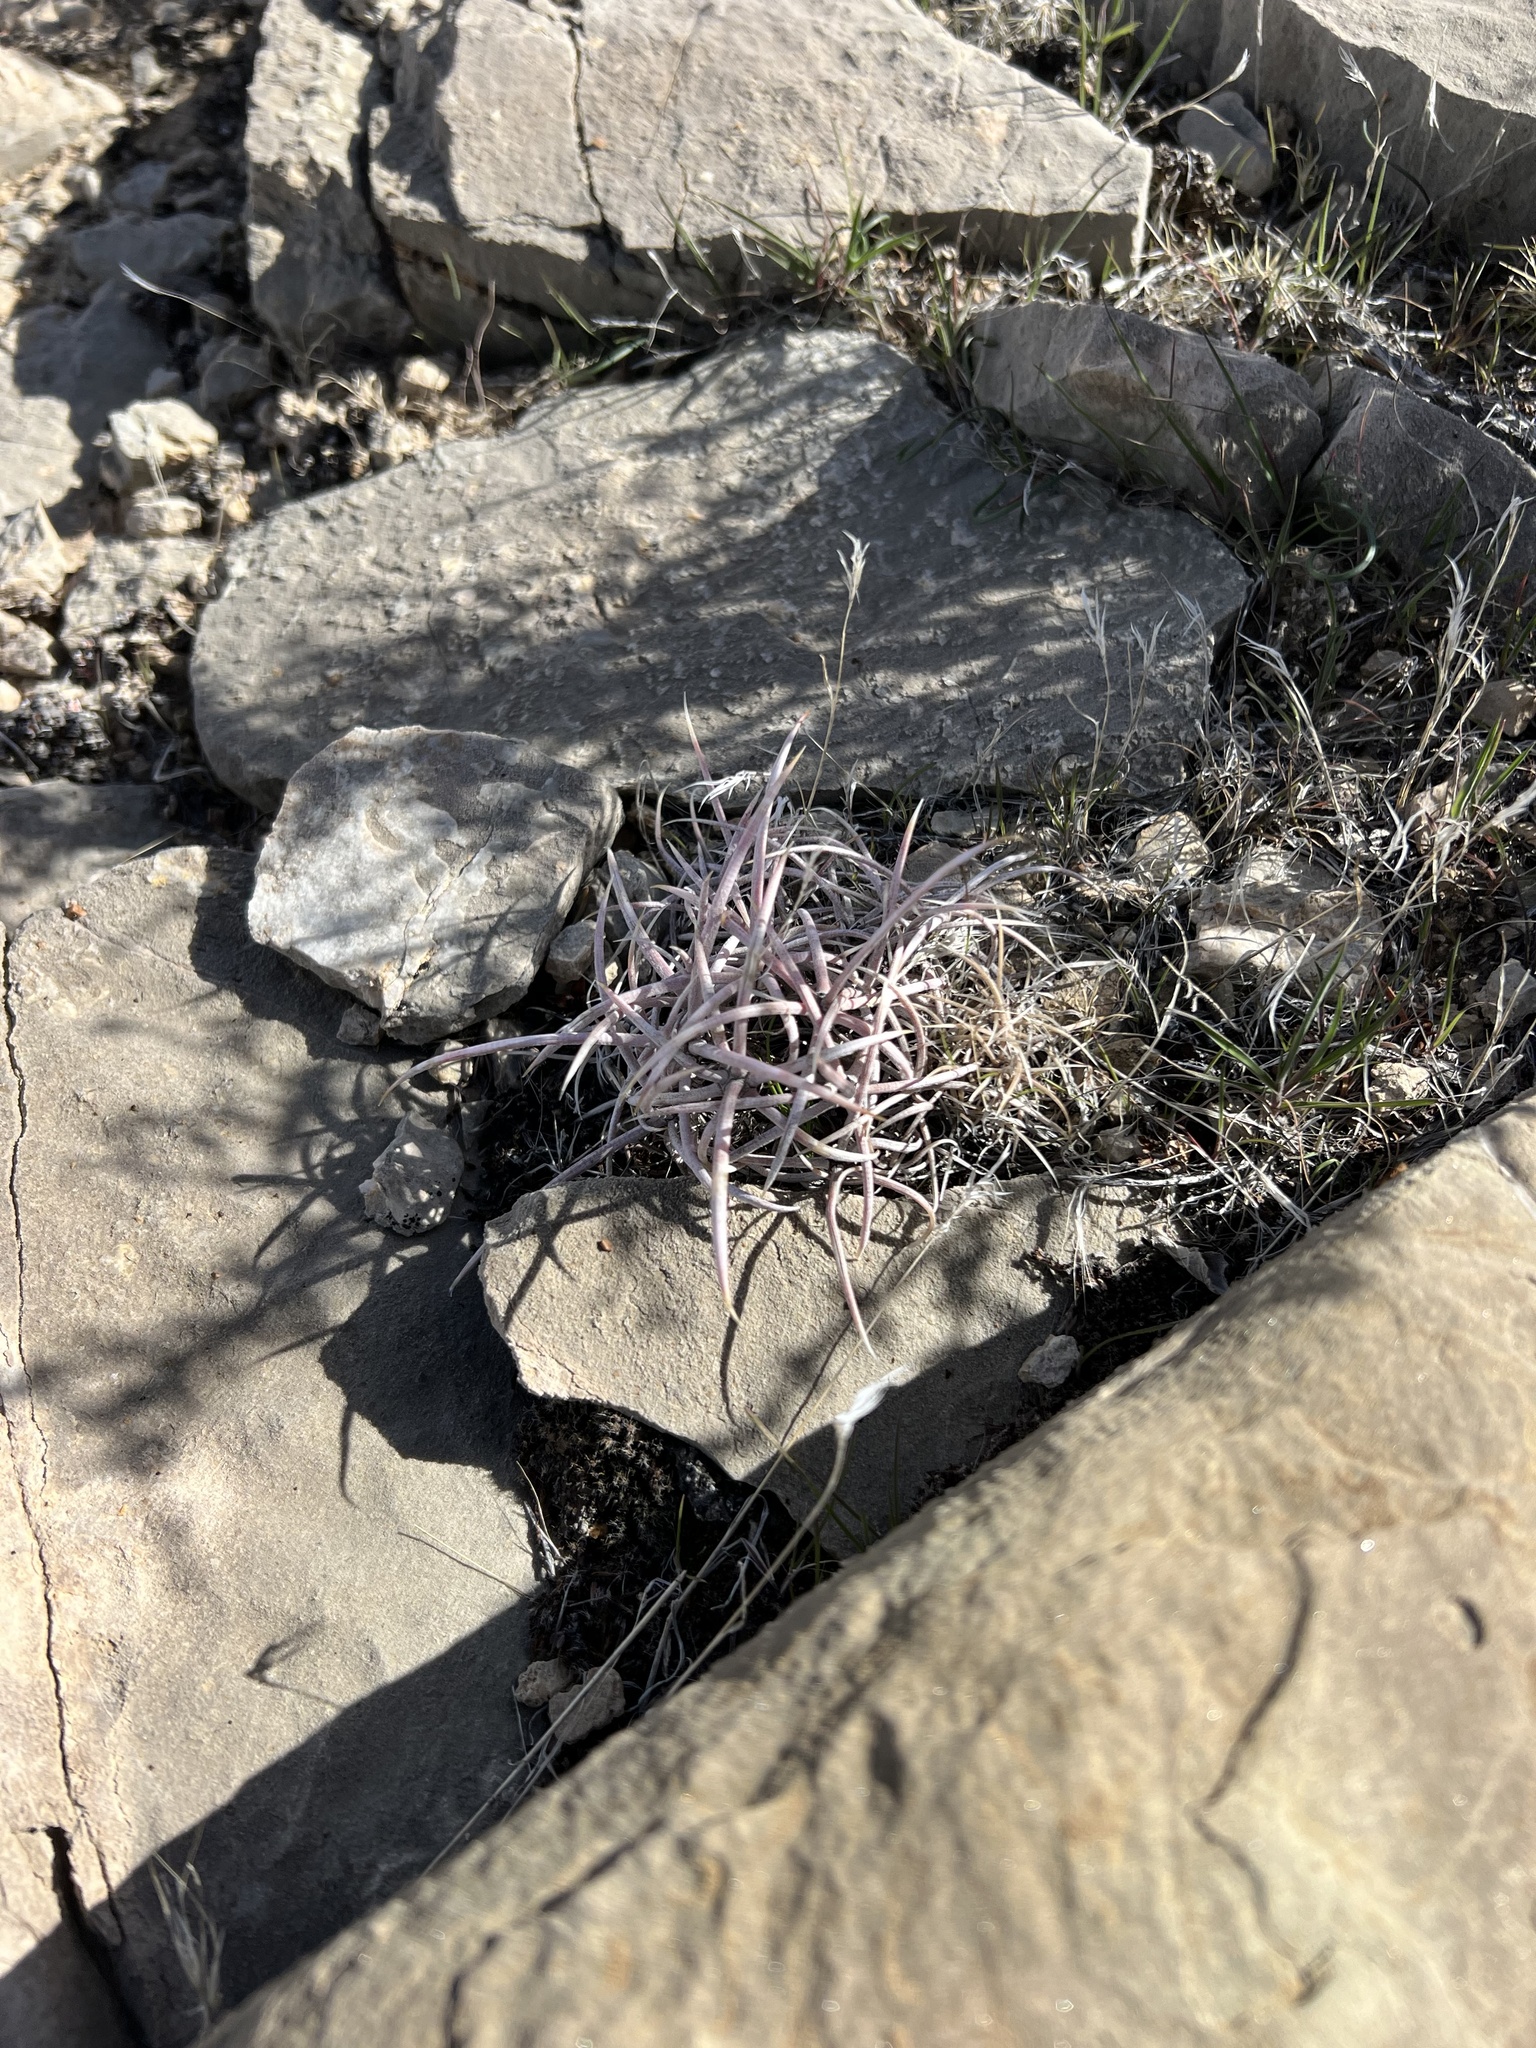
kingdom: Plantae
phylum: Tracheophyta
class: Magnoliopsida
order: Caryophyllales
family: Cactaceae
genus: Echinocactus
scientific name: Echinocactus polycephalus
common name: Cottontop cactus
